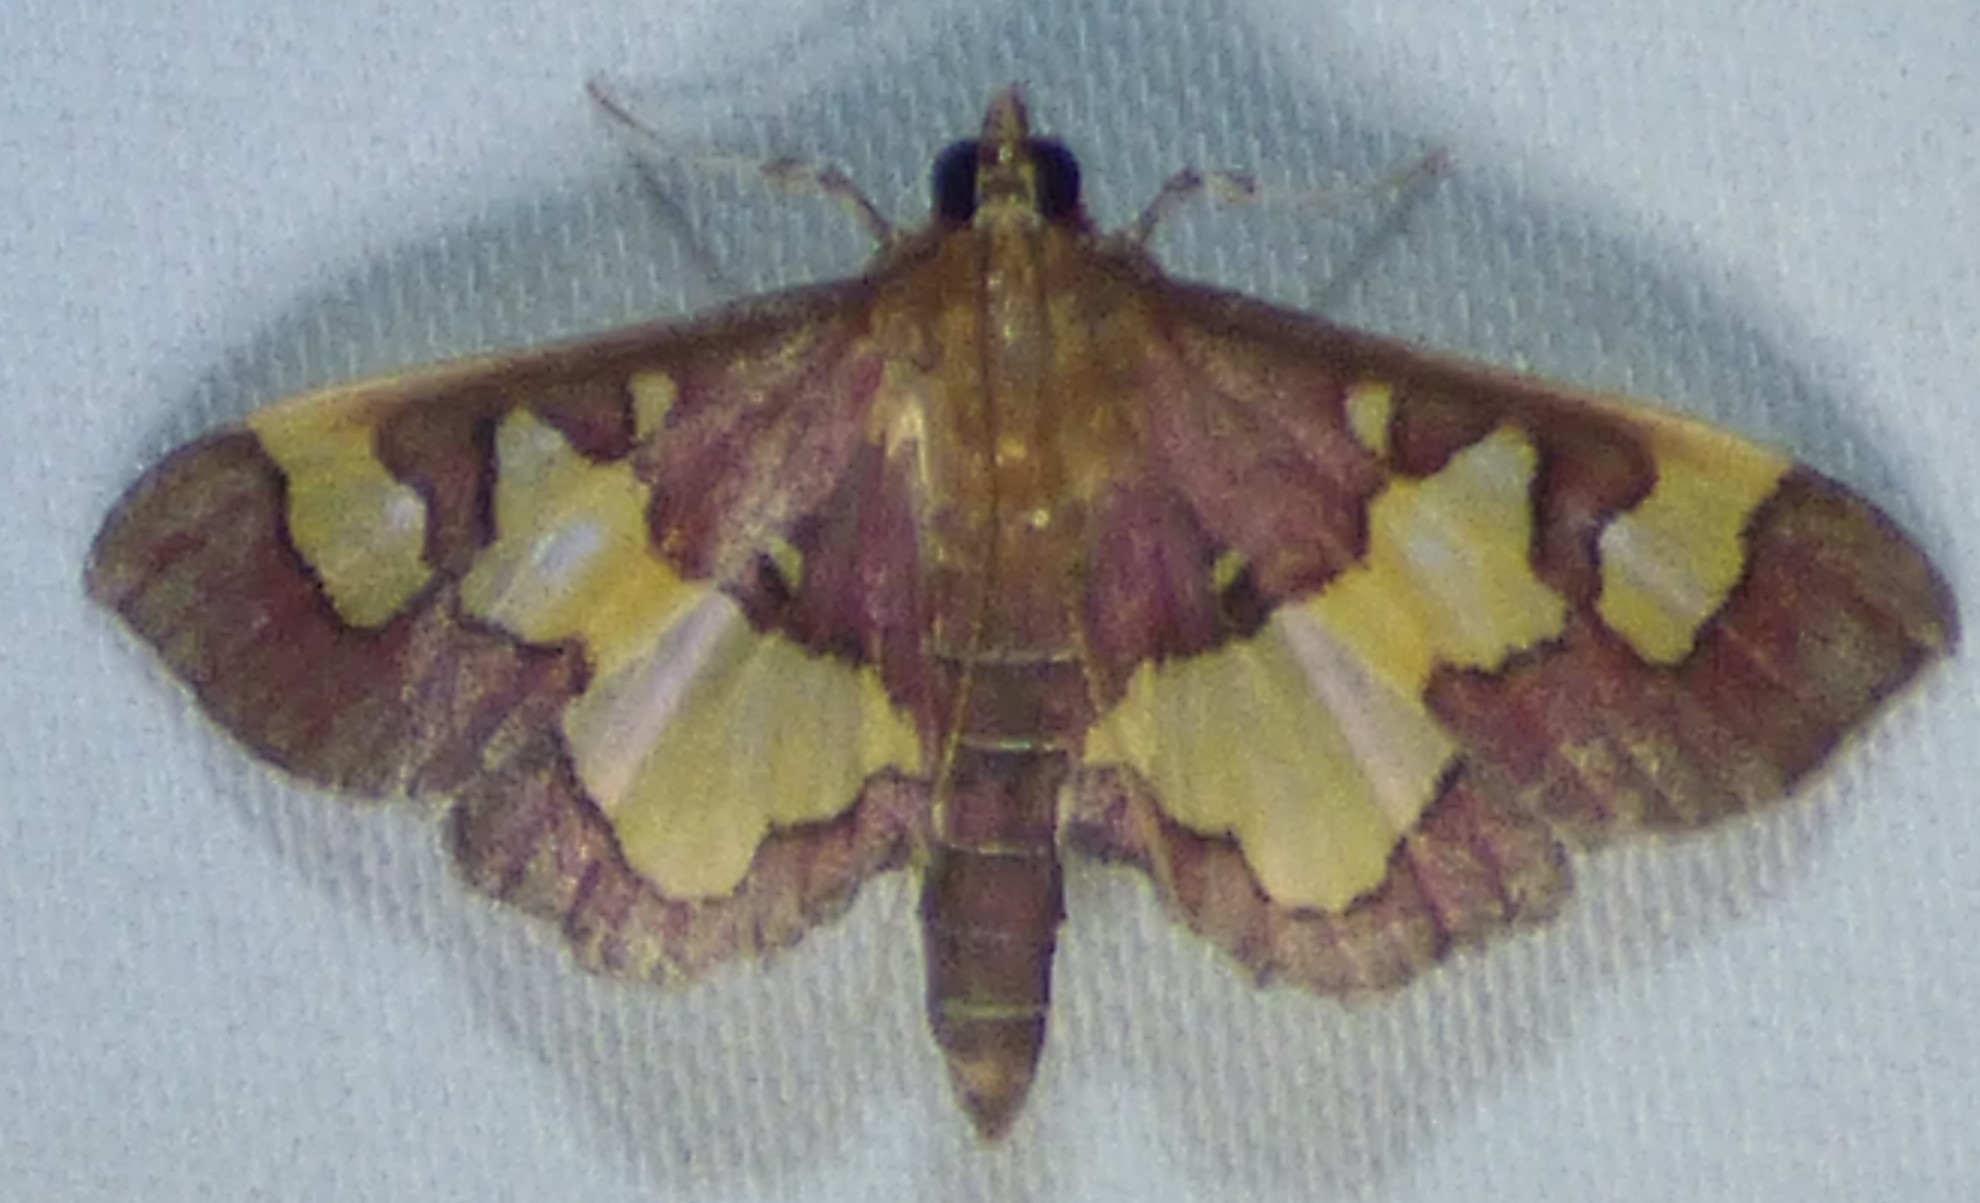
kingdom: Animalia
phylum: Arthropoda
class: Insecta
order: Lepidoptera
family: Crambidae
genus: Colomychus
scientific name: Colomychus talis
